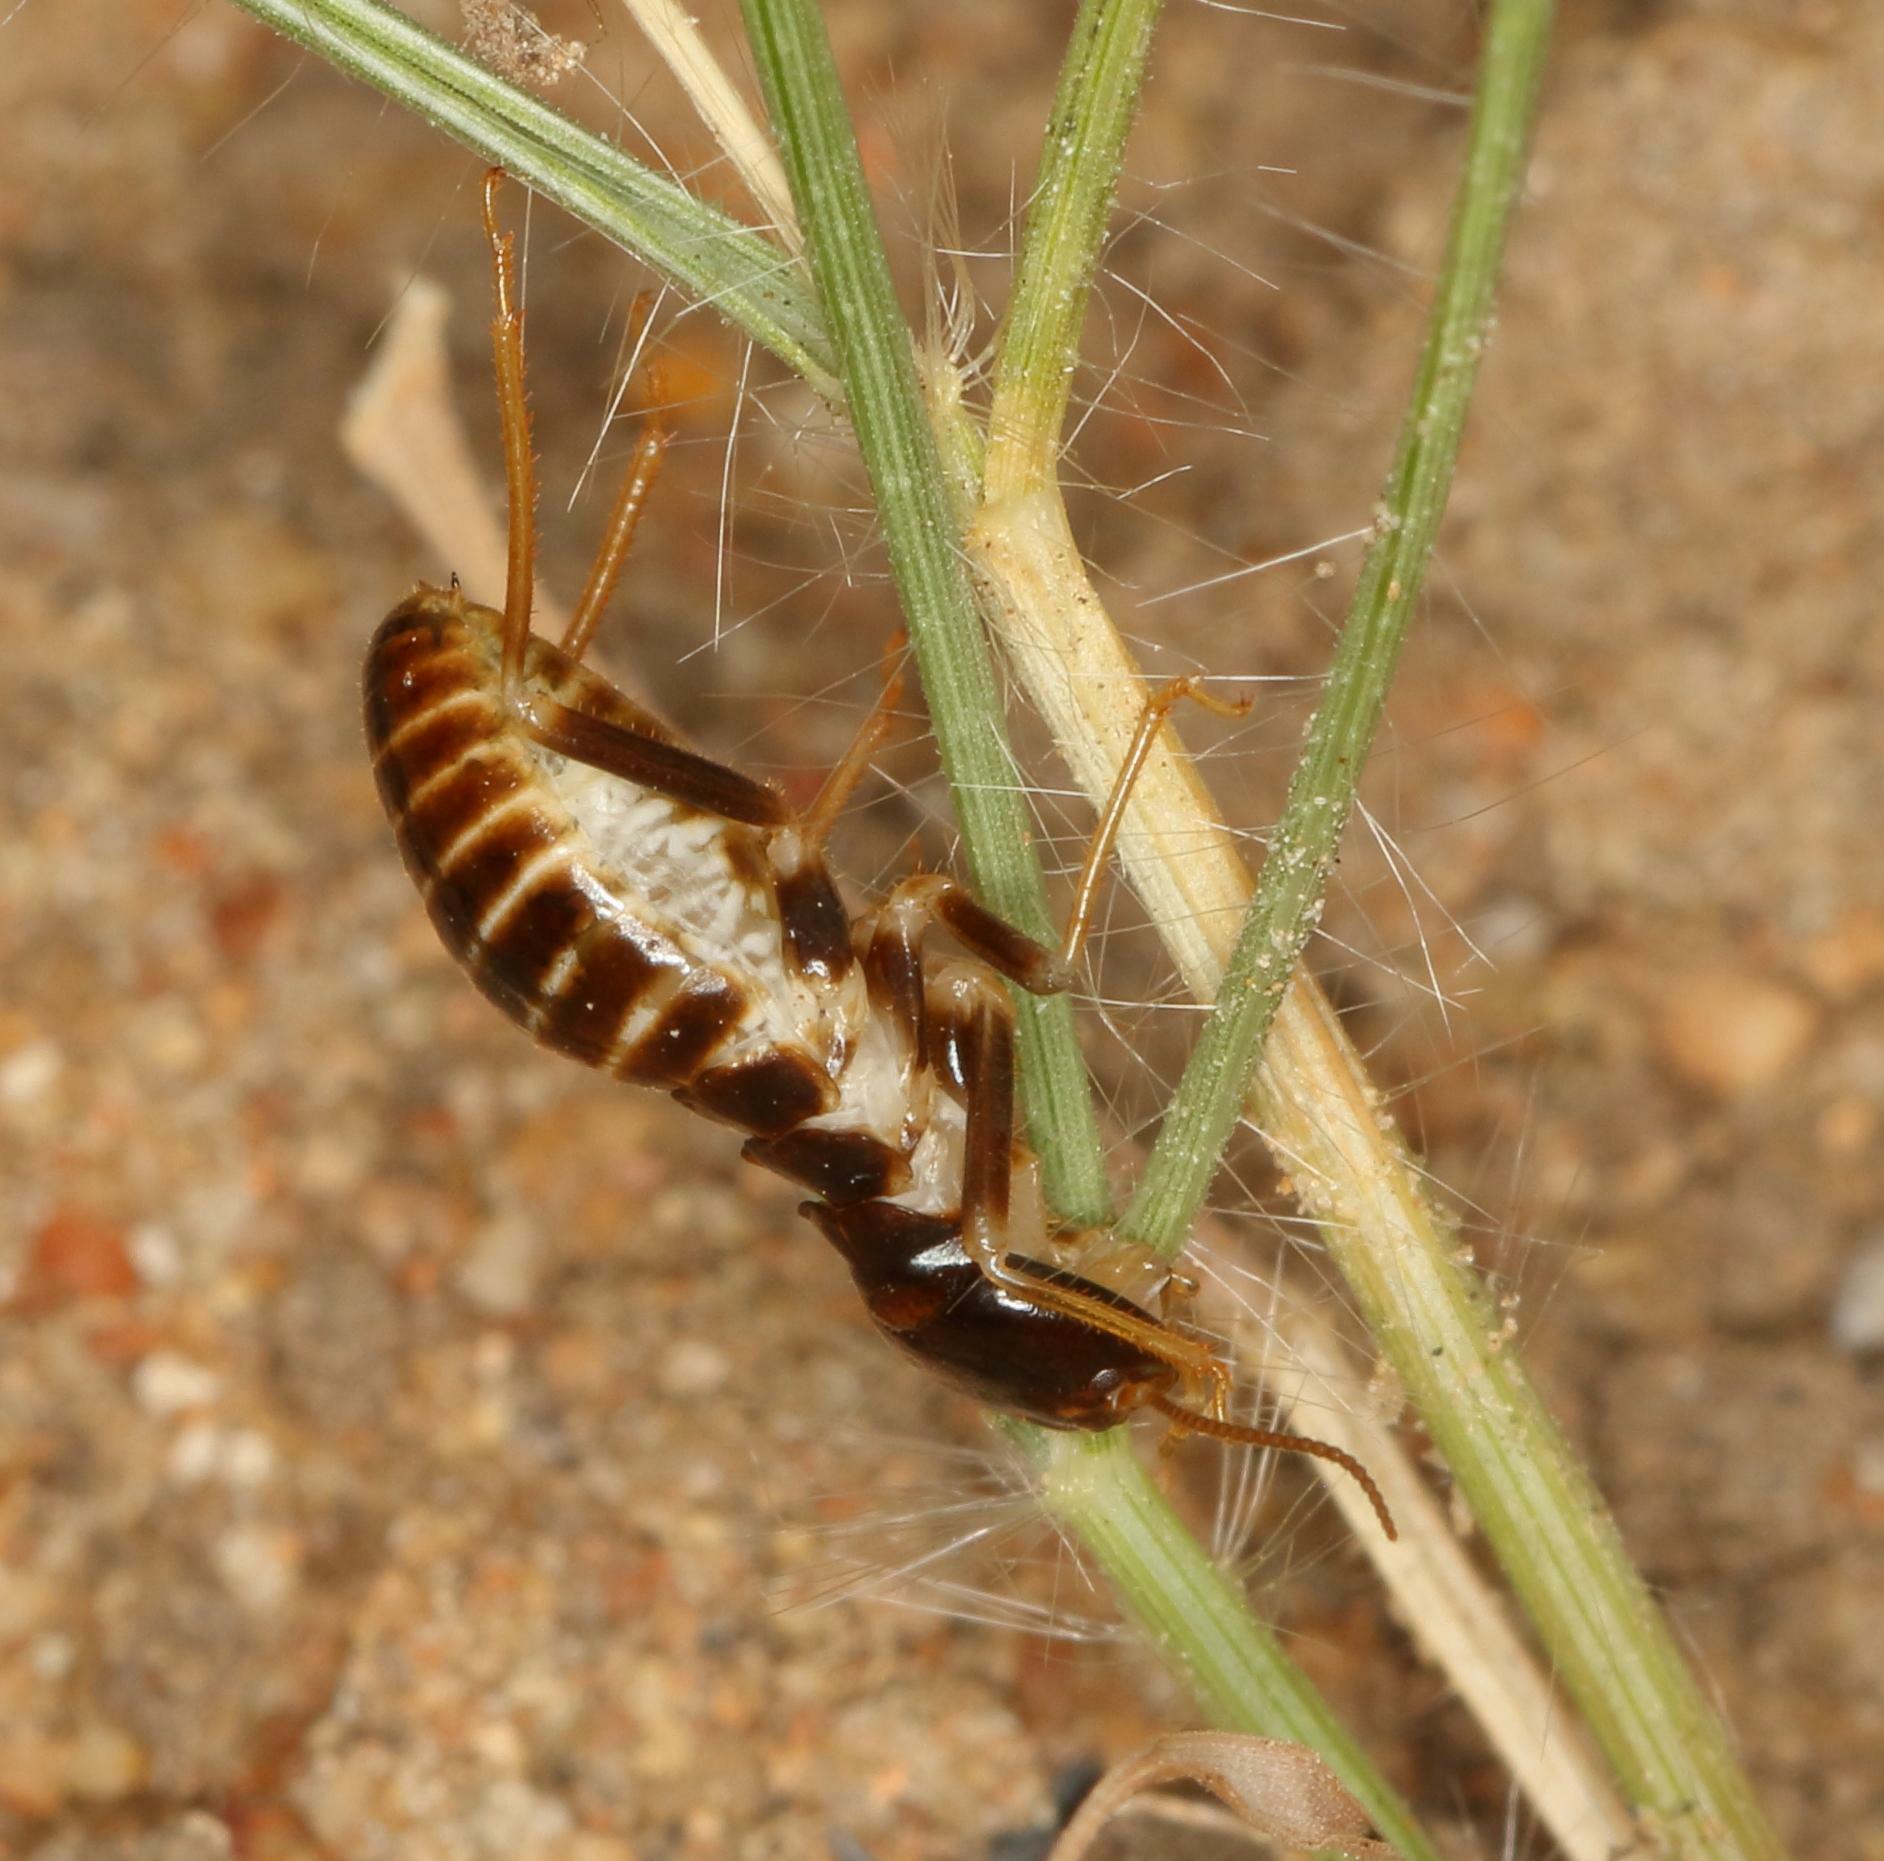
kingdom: Animalia
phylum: Arthropoda
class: Insecta
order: Blattodea
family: Hodotermitidae
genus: Hodotermes
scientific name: Hodotermes mossambicus
